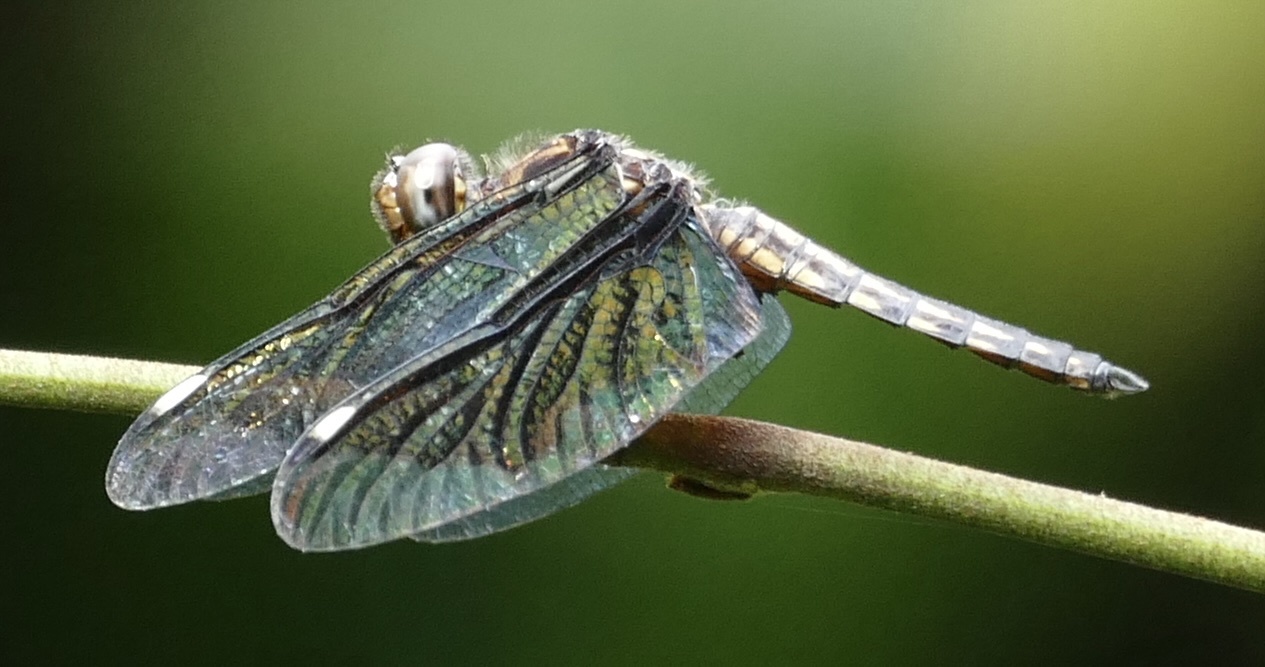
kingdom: Animalia
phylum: Arthropoda
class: Insecta
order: Odonata
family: Libellulidae
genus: Palpopleura
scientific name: Palpopleura lucia
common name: Lucia widow
